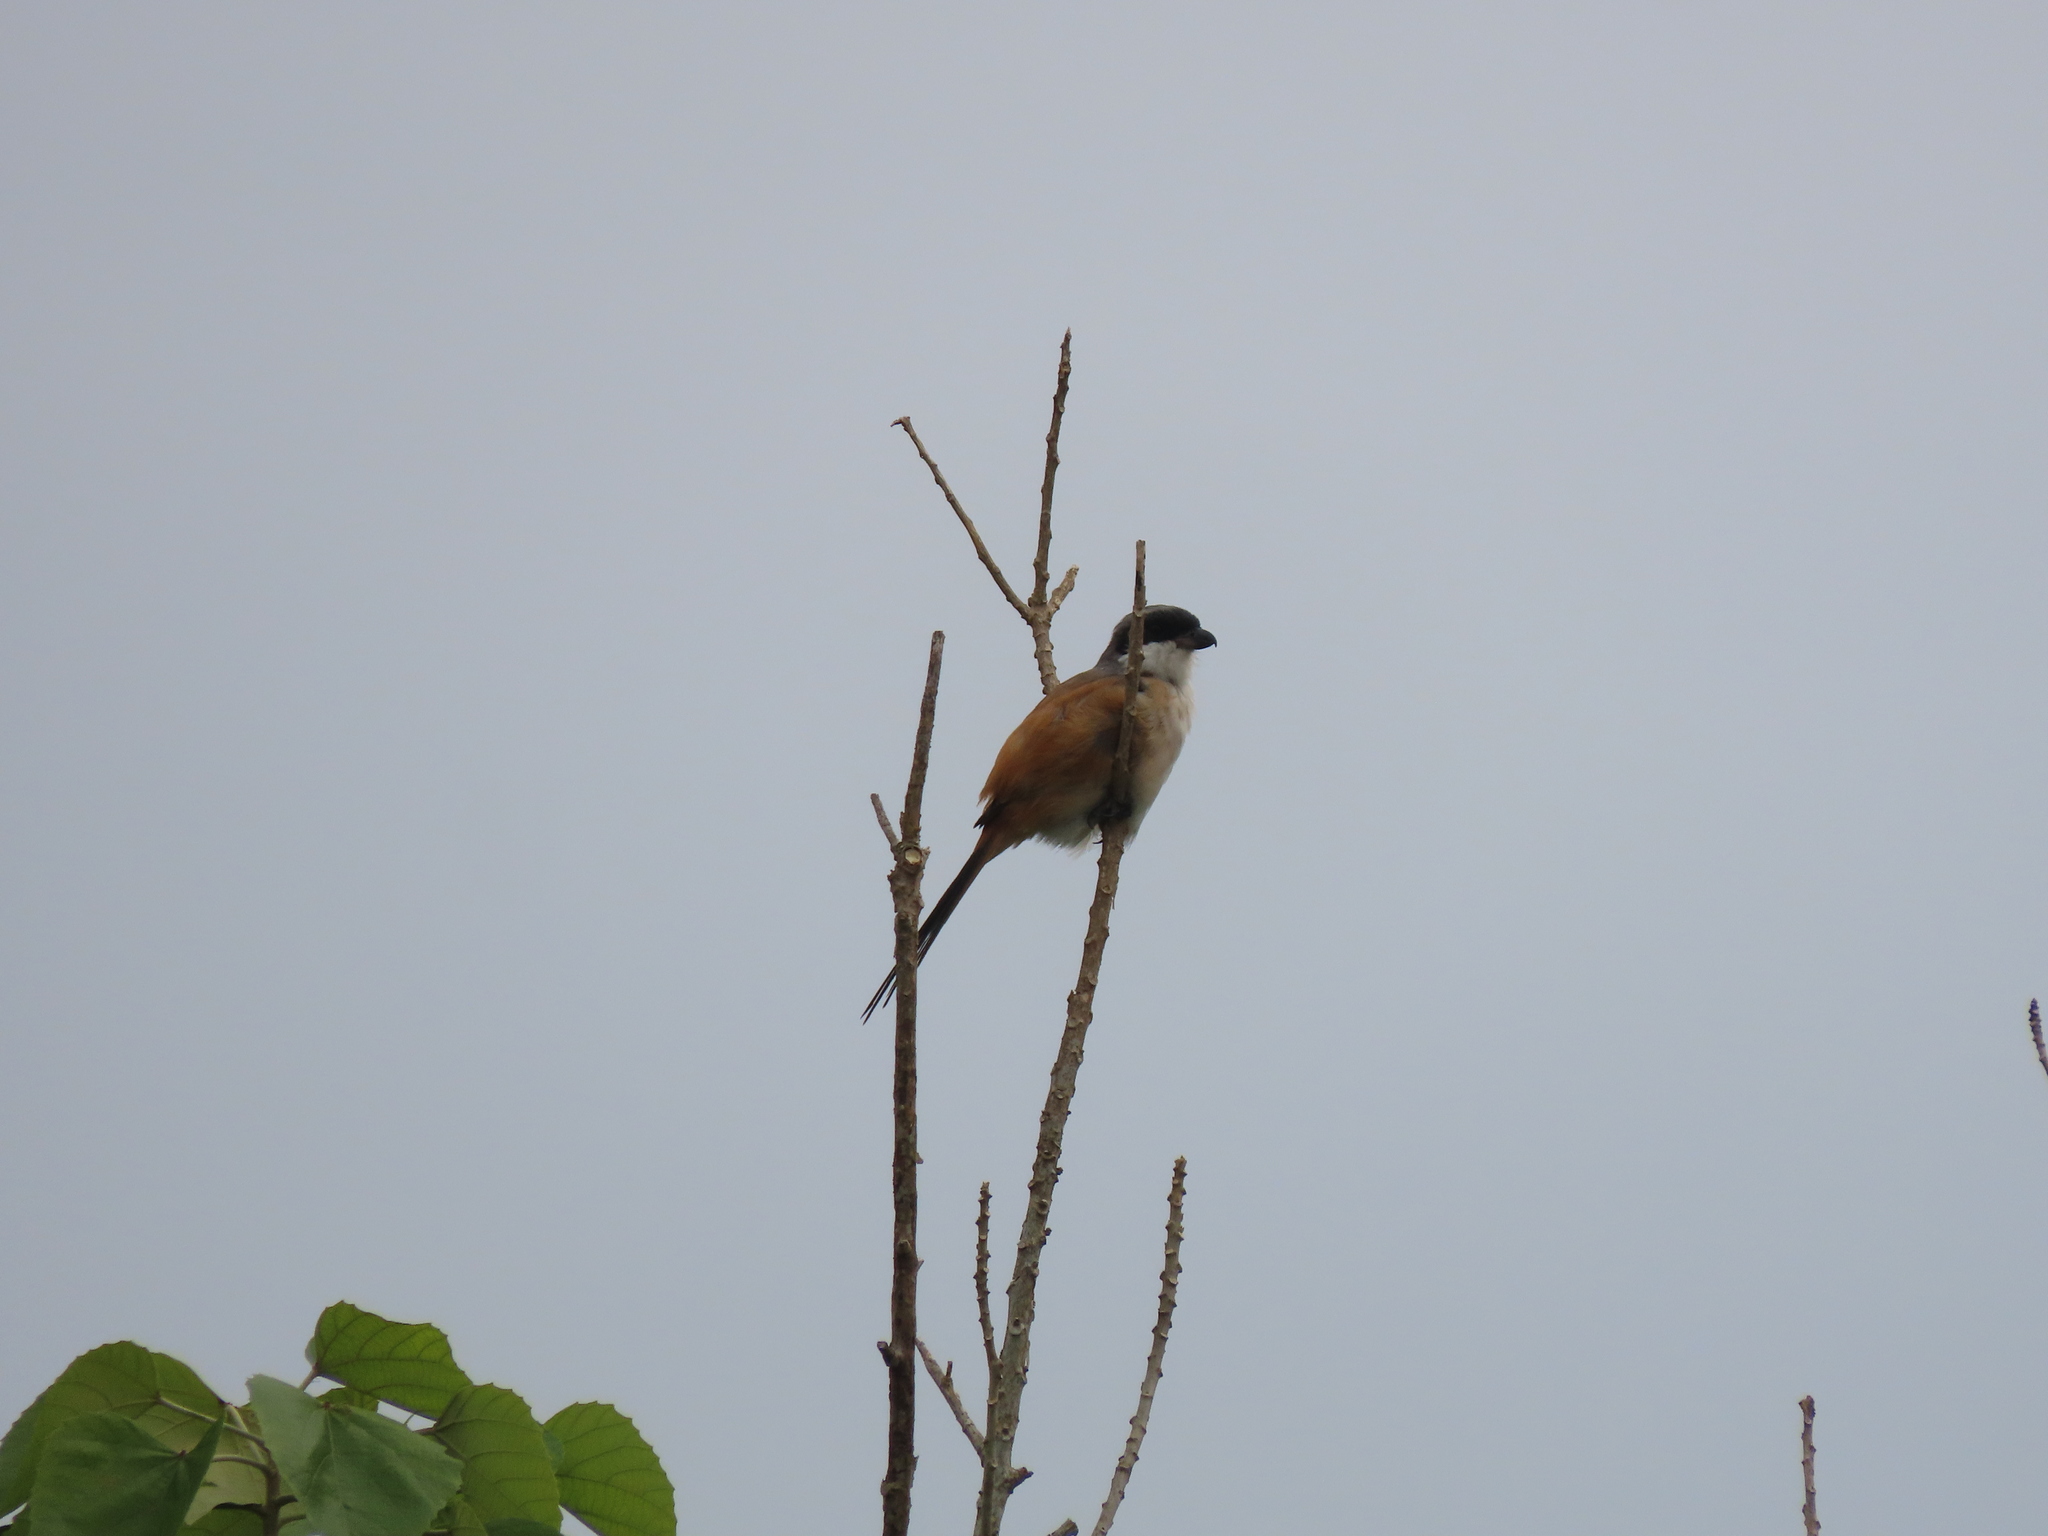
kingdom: Animalia
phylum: Chordata
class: Aves
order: Passeriformes
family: Laniidae
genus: Lanius
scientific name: Lanius schach
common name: Long-tailed shrike
